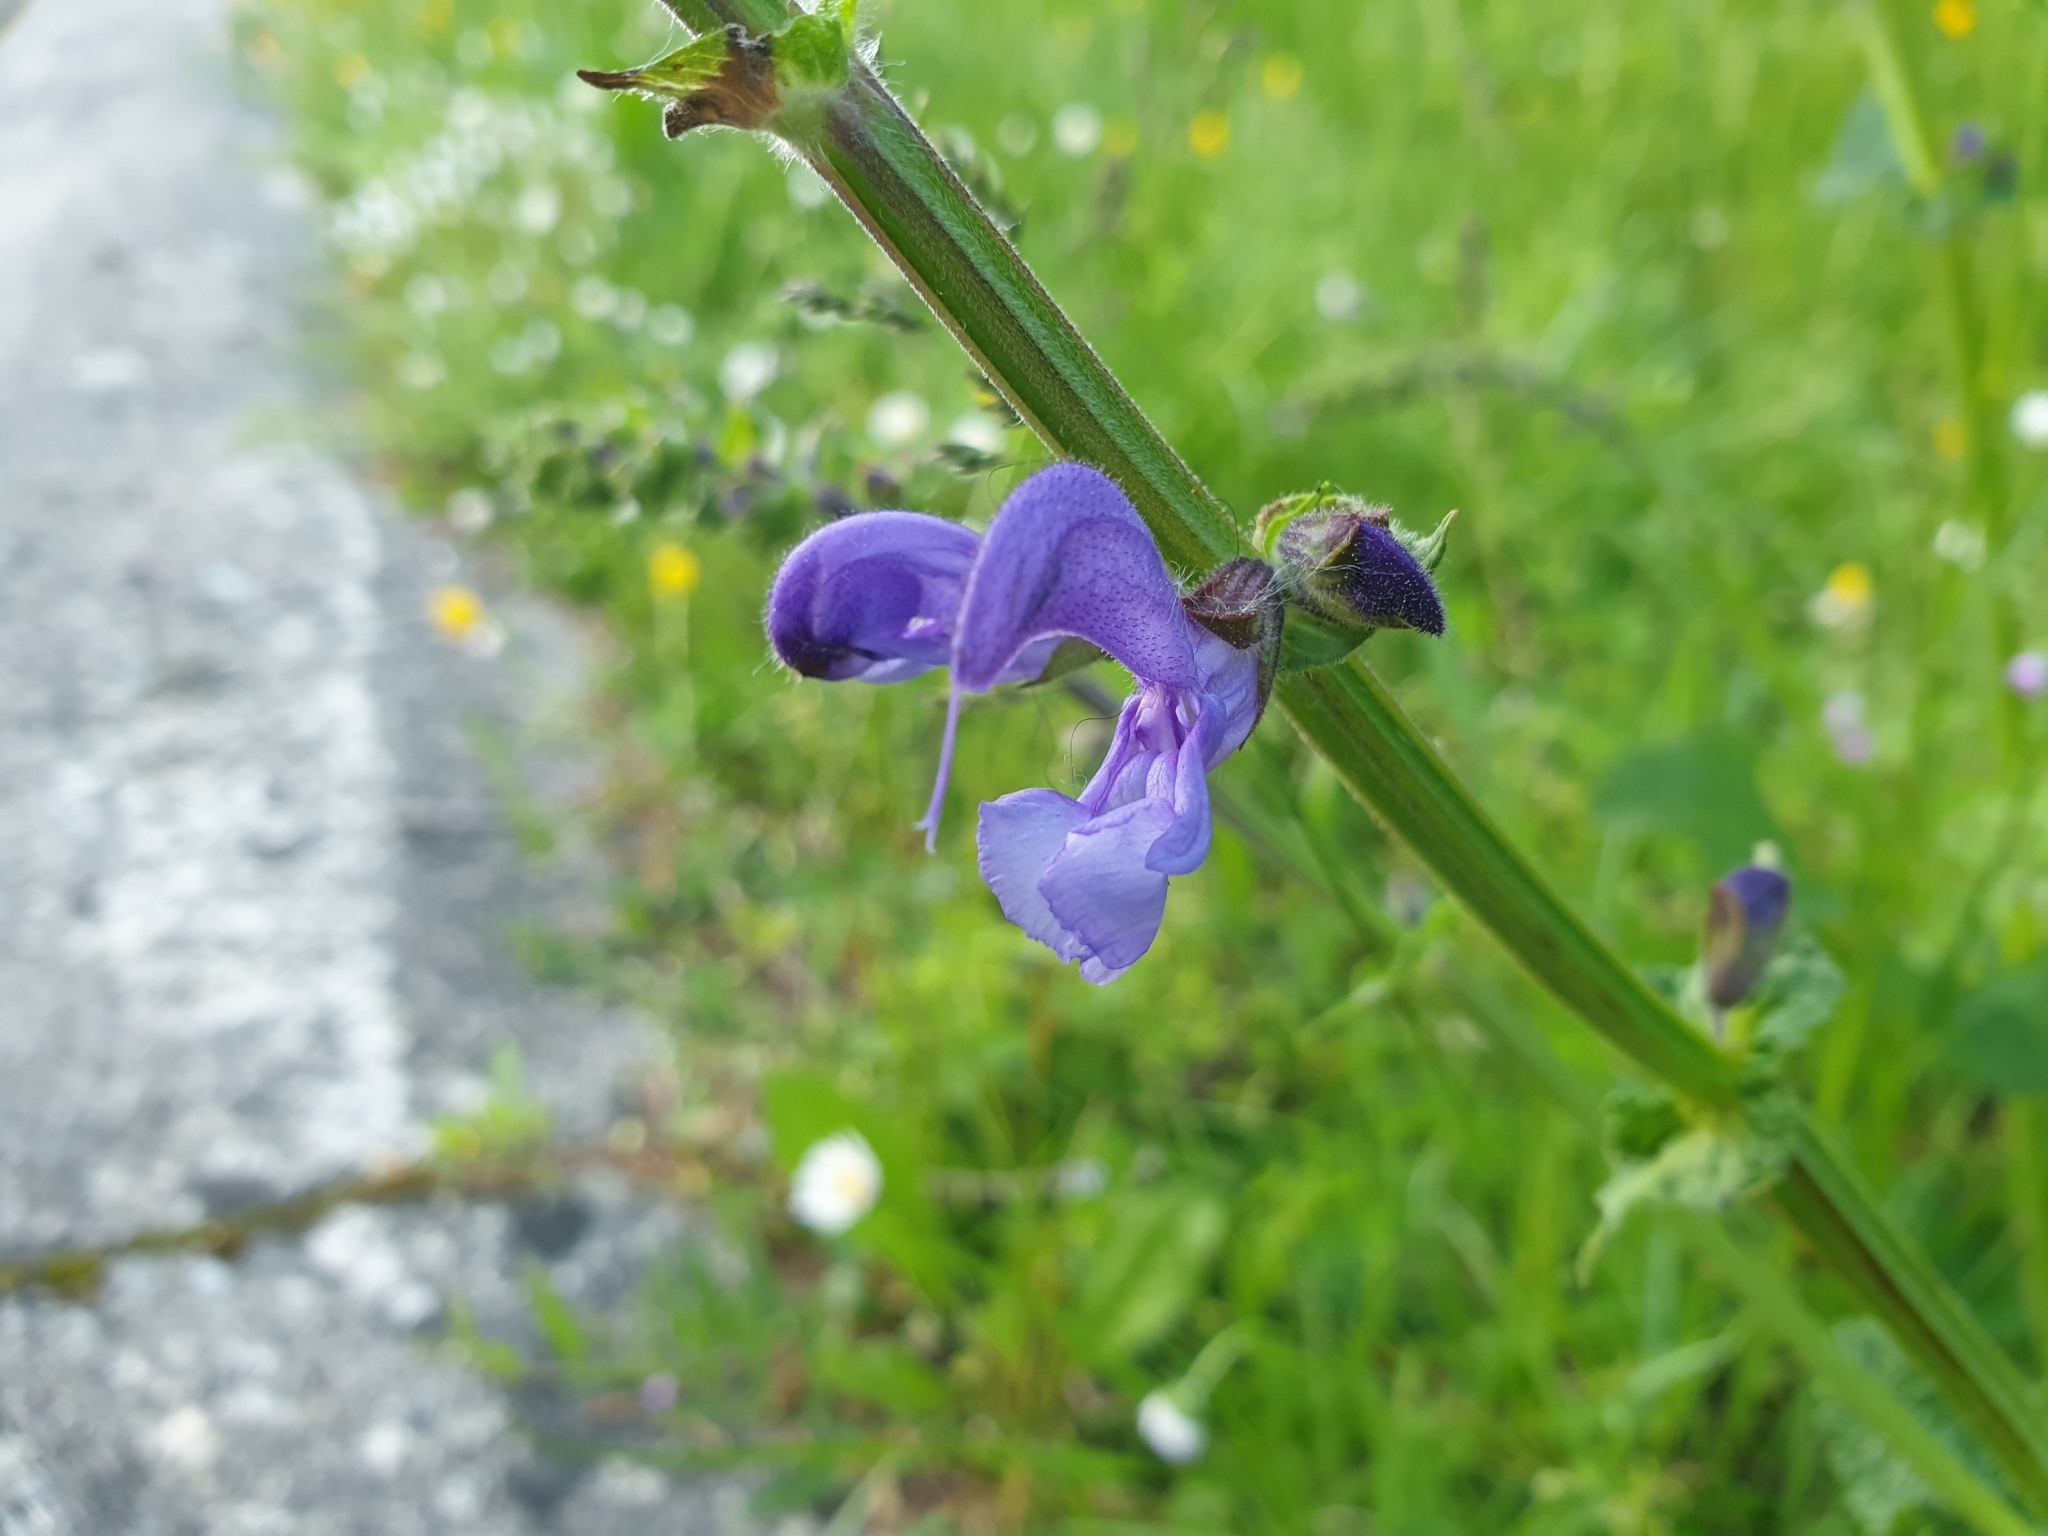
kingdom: Plantae
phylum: Tracheophyta
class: Magnoliopsida
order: Lamiales
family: Lamiaceae
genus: Salvia
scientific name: Salvia pratensis
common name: Meadow sage
